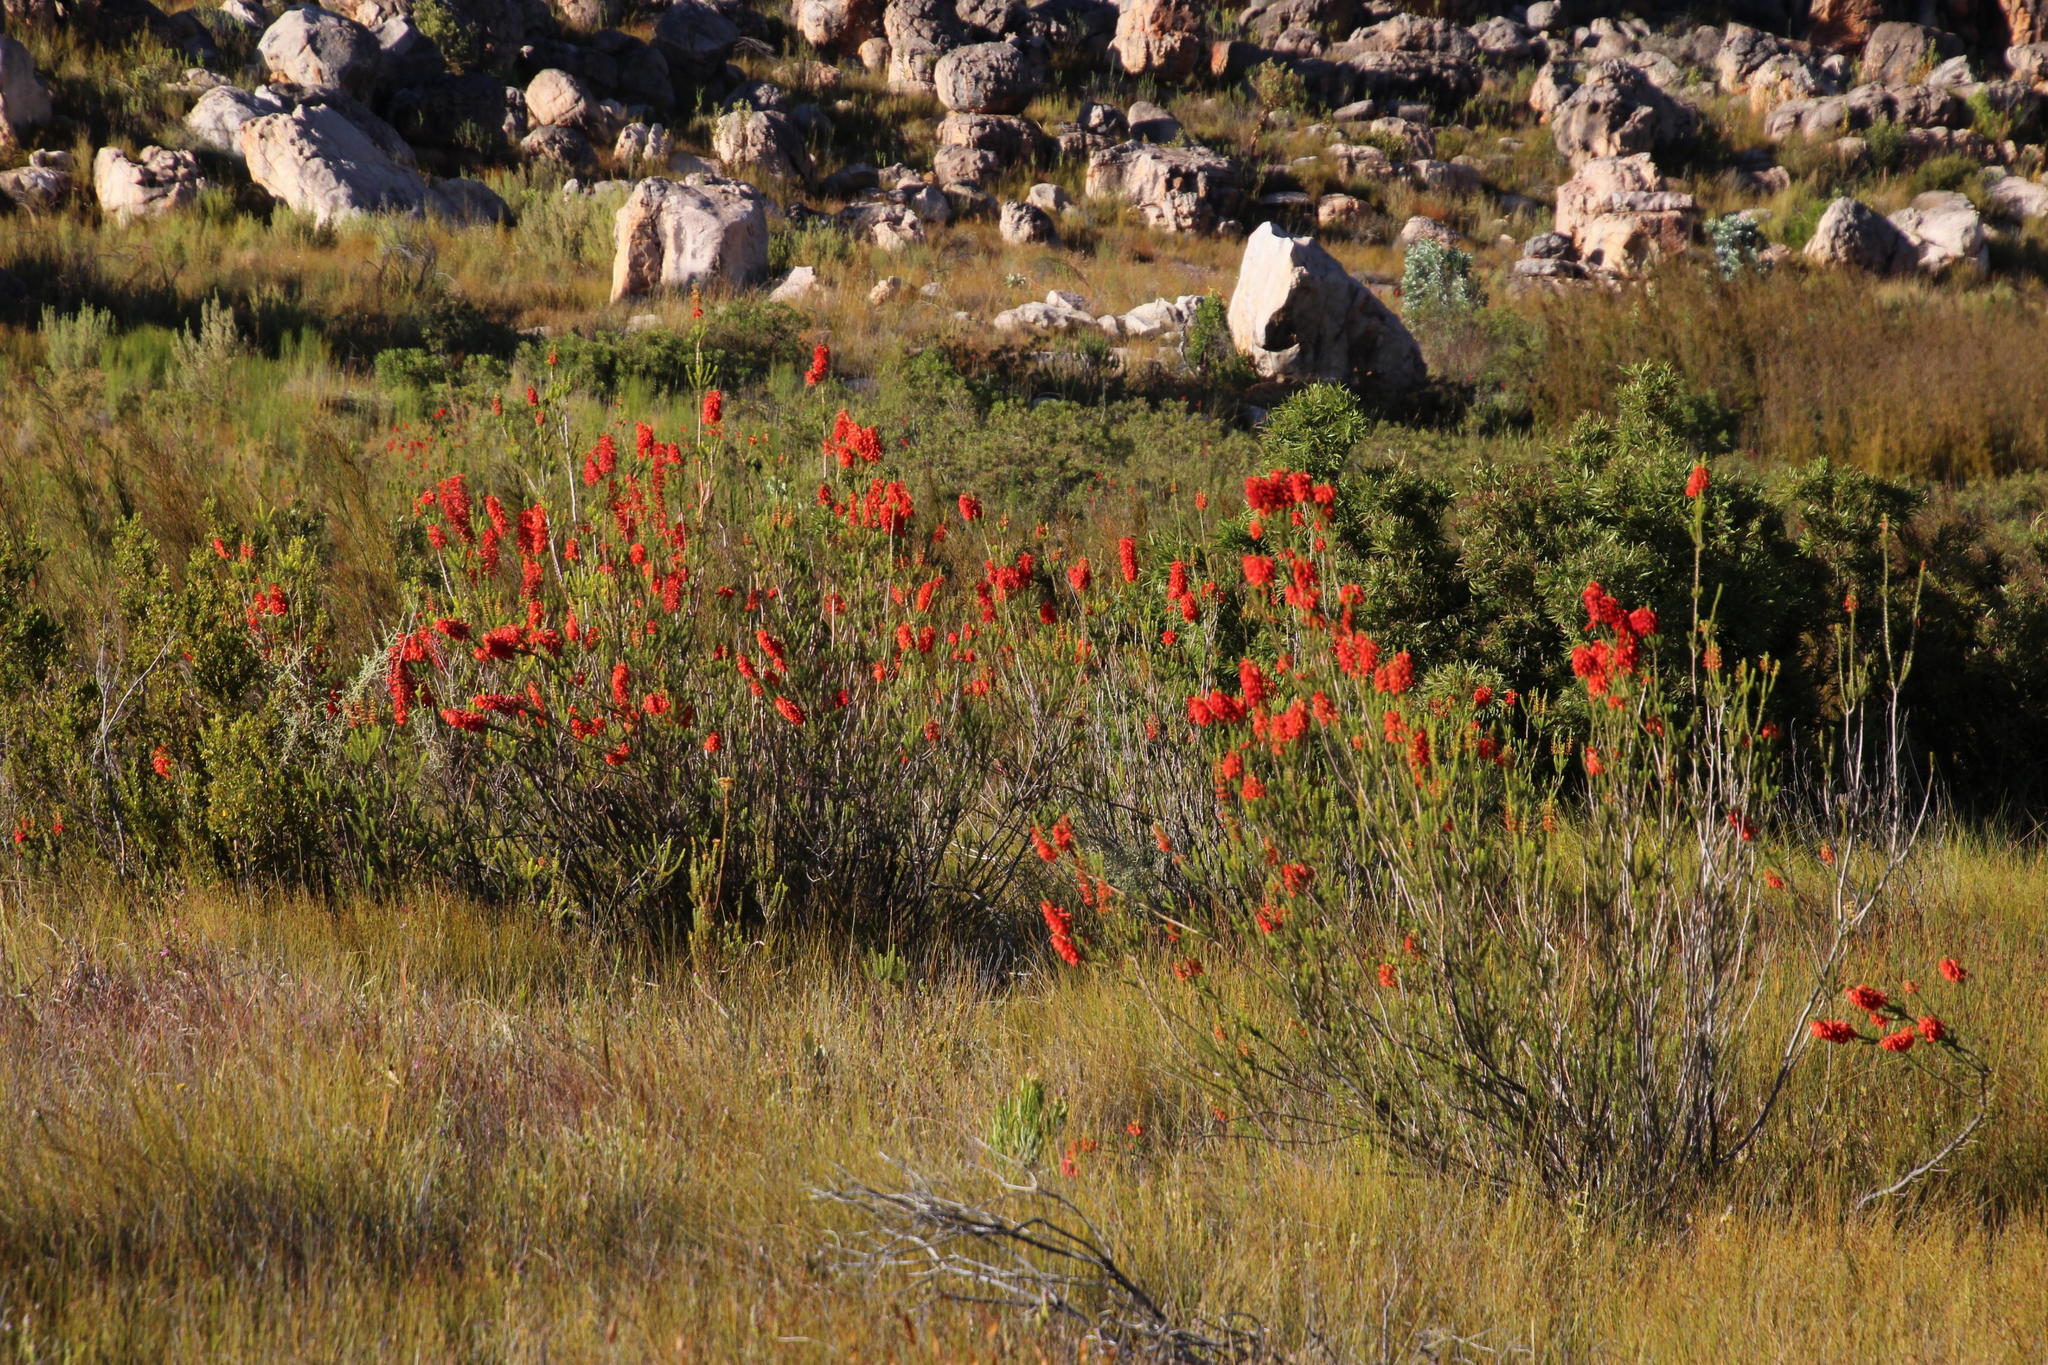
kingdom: Plantae
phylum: Tracheophyta
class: Magnoliopsida
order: Ericales
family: Ericaceae
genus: Erica
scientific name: Erica mammosa
